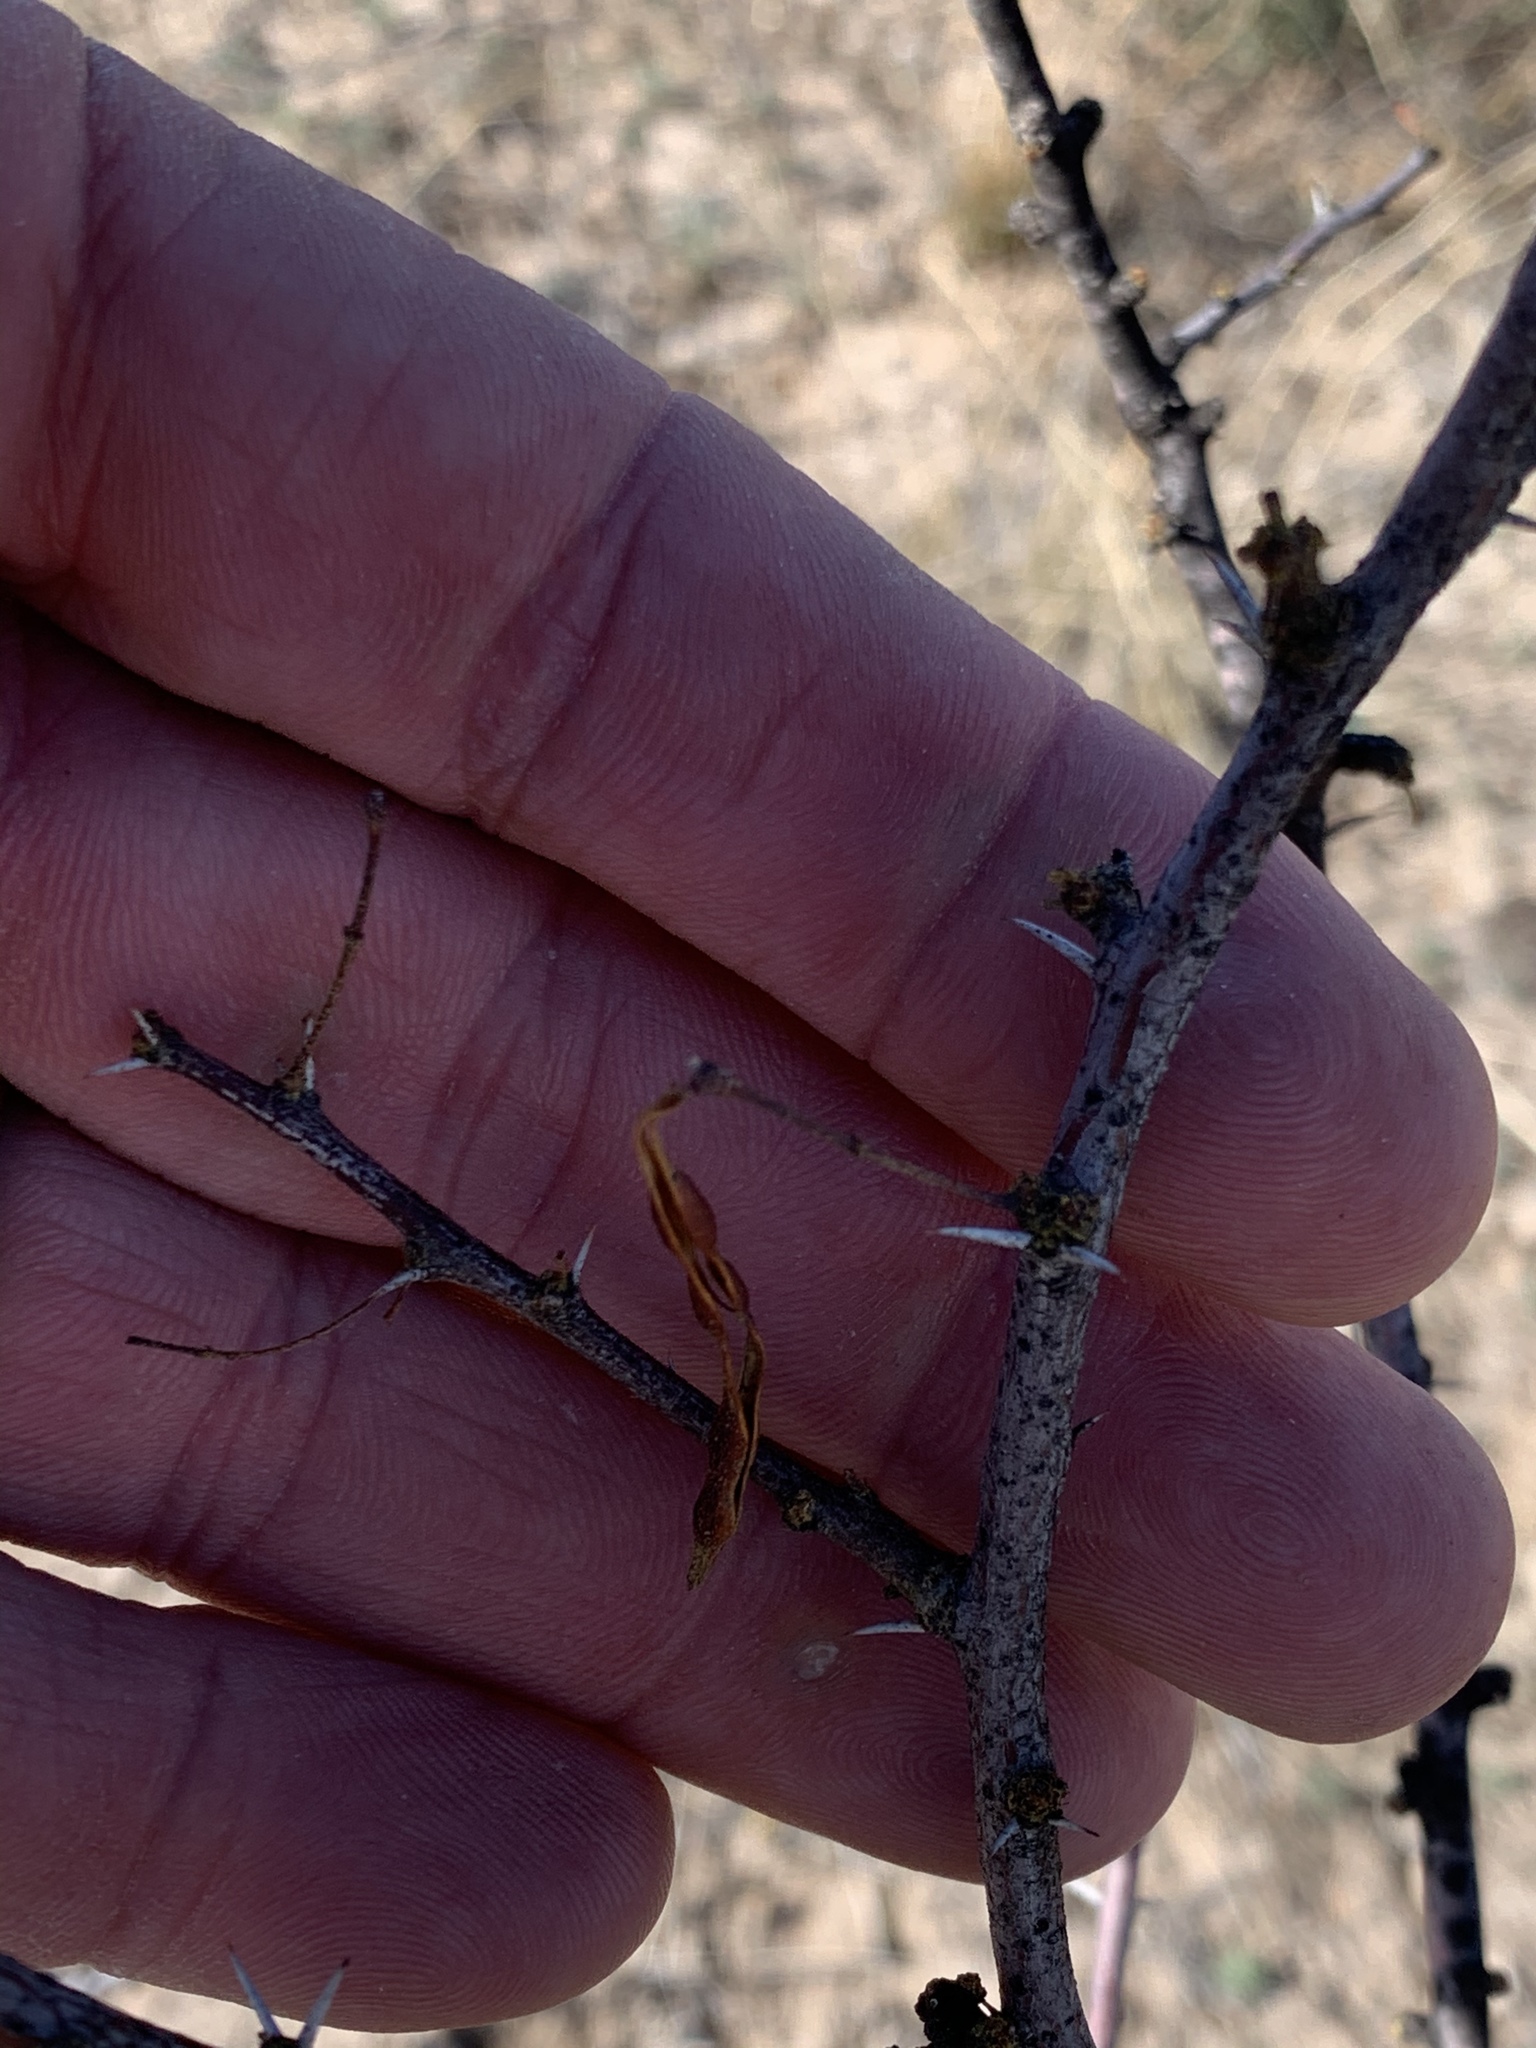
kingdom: Plantae
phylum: Tracheophyta
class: Magnoliopsida
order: Fabales
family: Fabaceae
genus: Vachellia
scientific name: Vachellia constricta
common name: Mescat acacia
